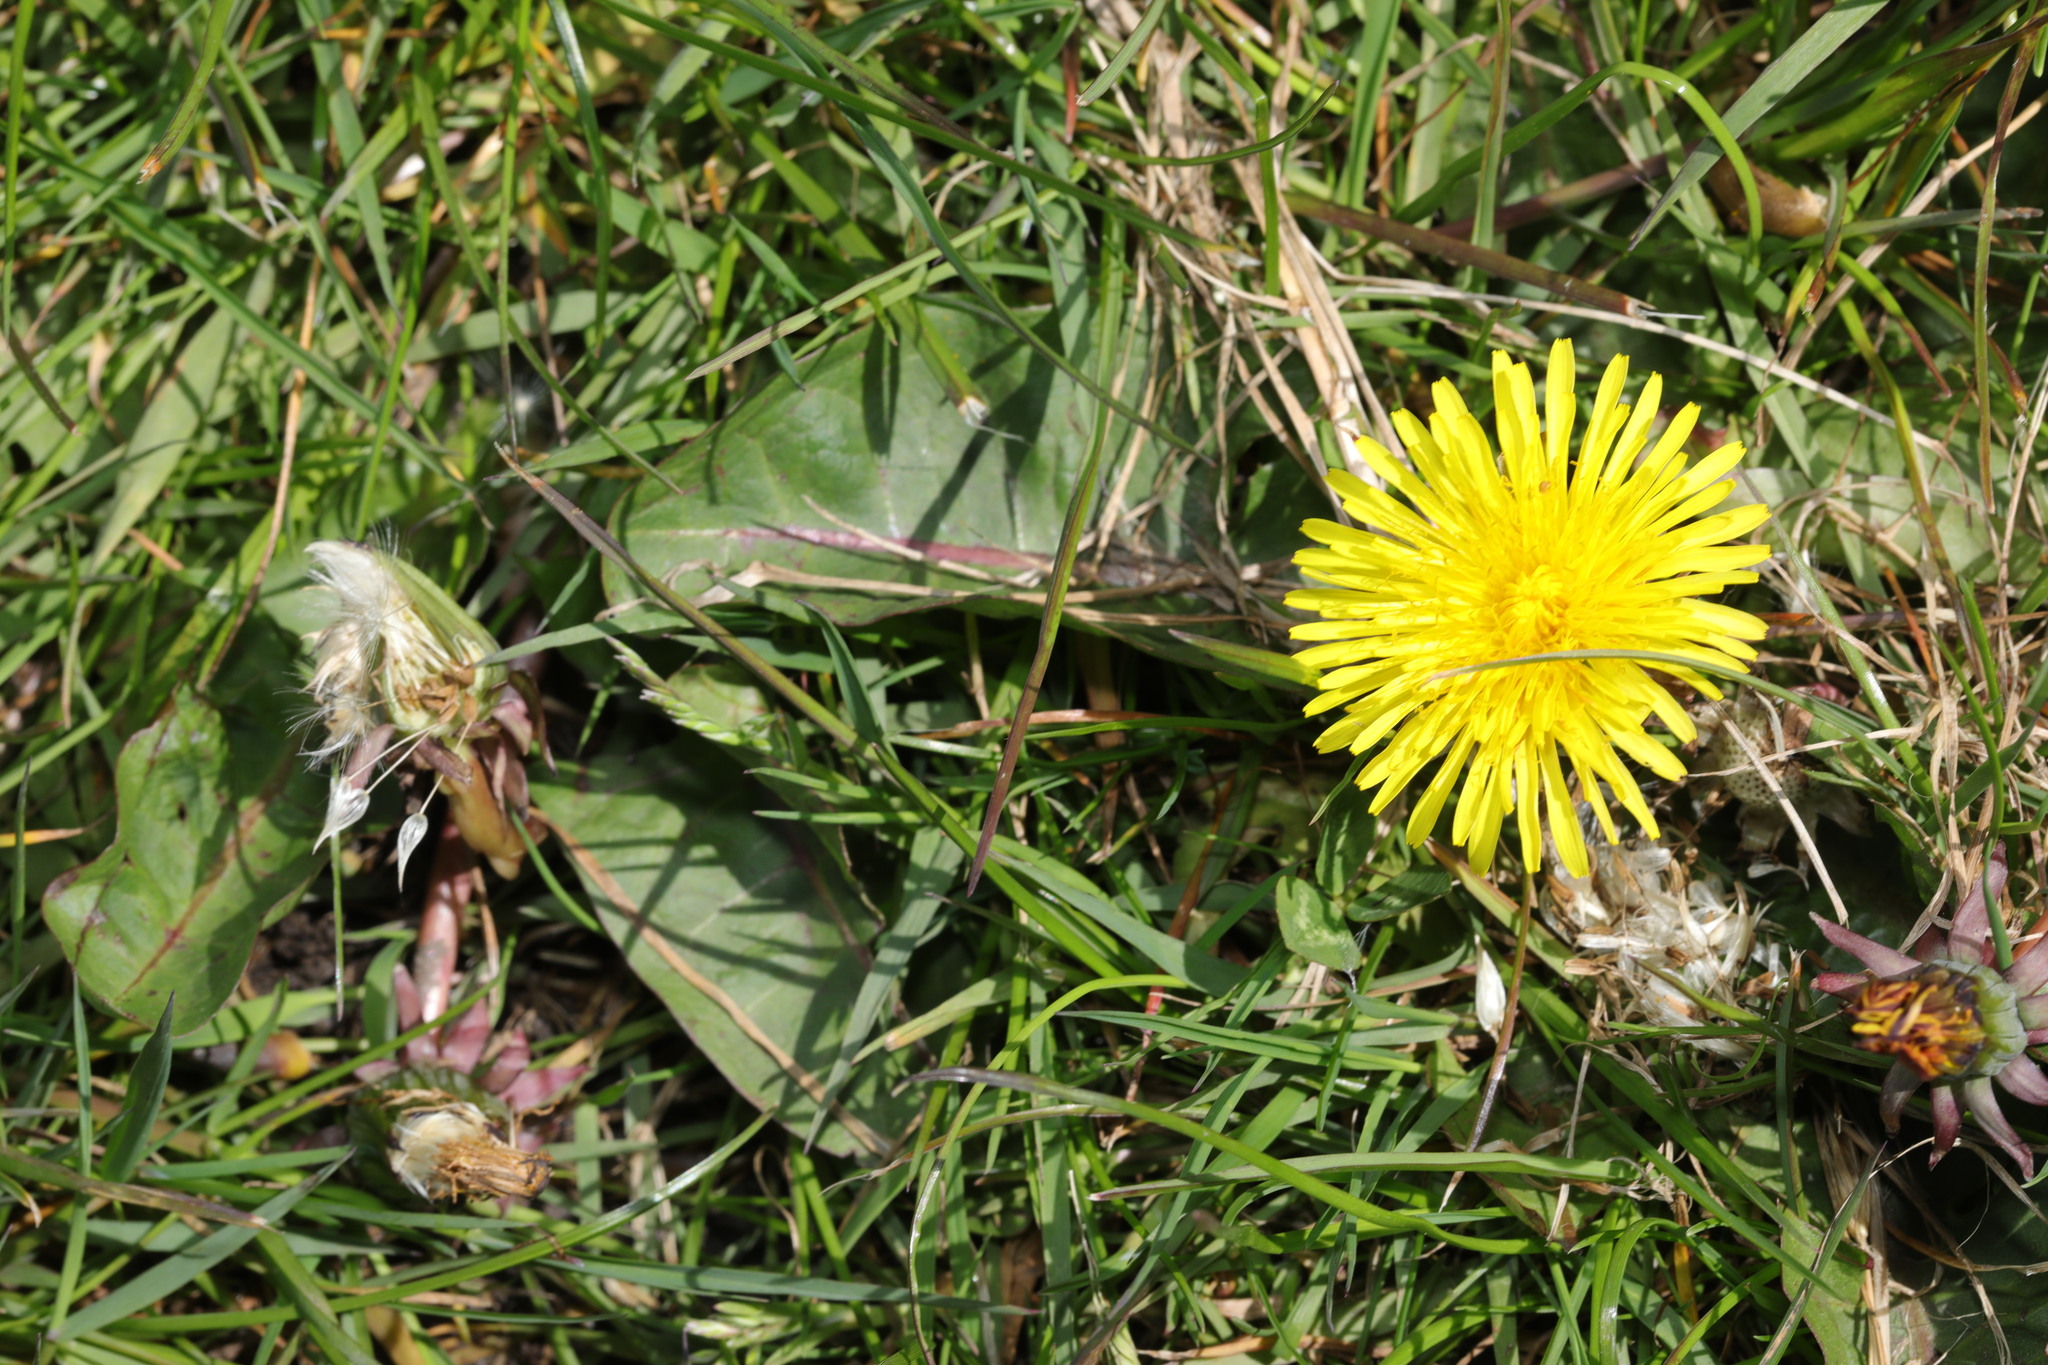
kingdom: Plantae
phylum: Tracheophyta
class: Magnoliopsida
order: Asterales
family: Asteraceae
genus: Taraxacum
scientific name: Taraxacum officinale
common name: Common dandelion
